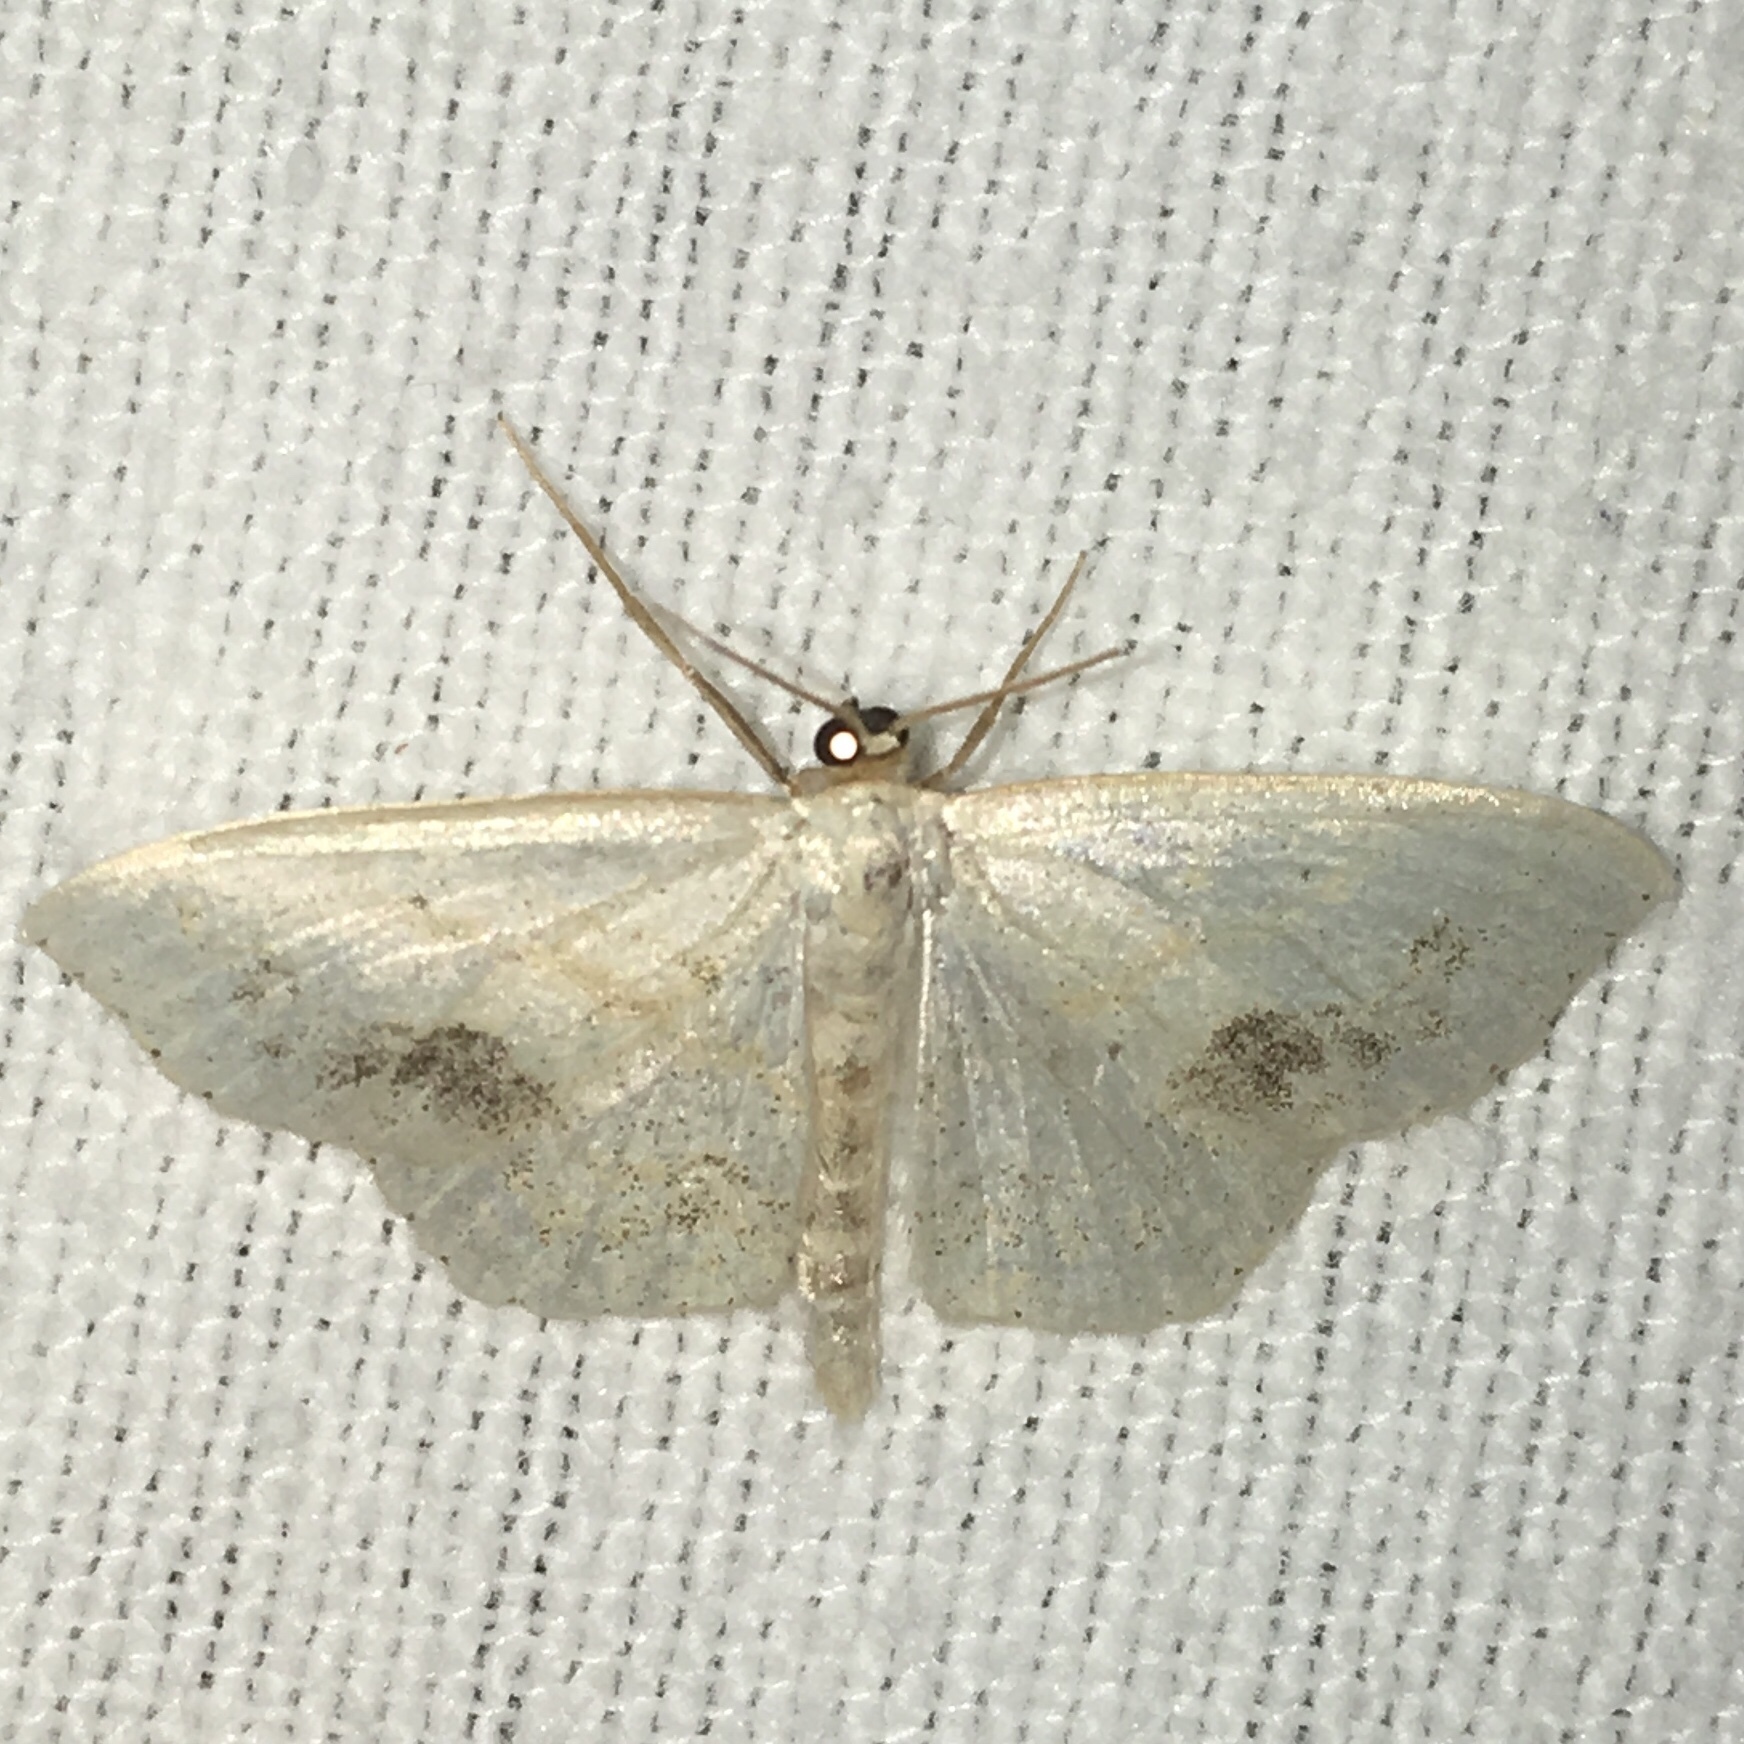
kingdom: Animalia
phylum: Arthropoda
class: Insecta
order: Lepidoptera
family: Geometridae
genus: Scopula
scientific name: Scopula limboundata
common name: Large lace border
